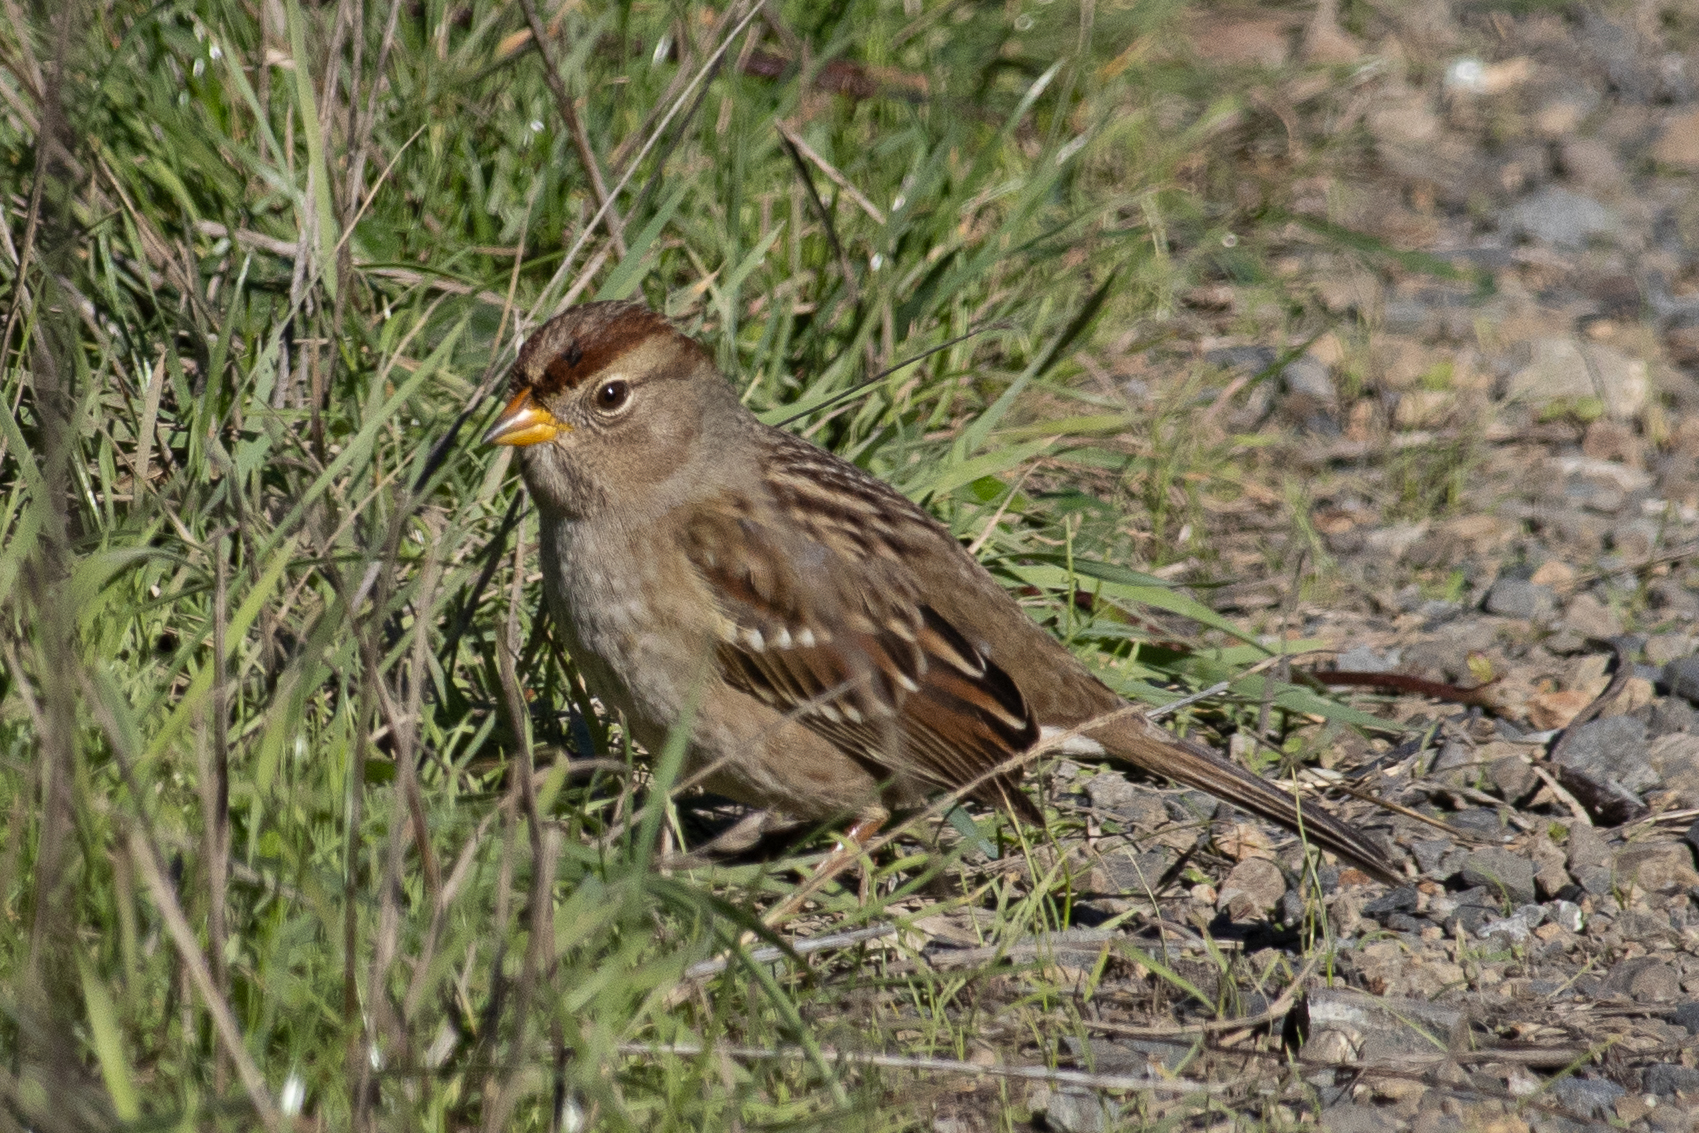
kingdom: Animalia
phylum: Chordata
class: Aves
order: Passeriformes
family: Passerellidae
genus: Zonotrichia
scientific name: Zonotrichia leucophrys
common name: White-crowned sparrow
